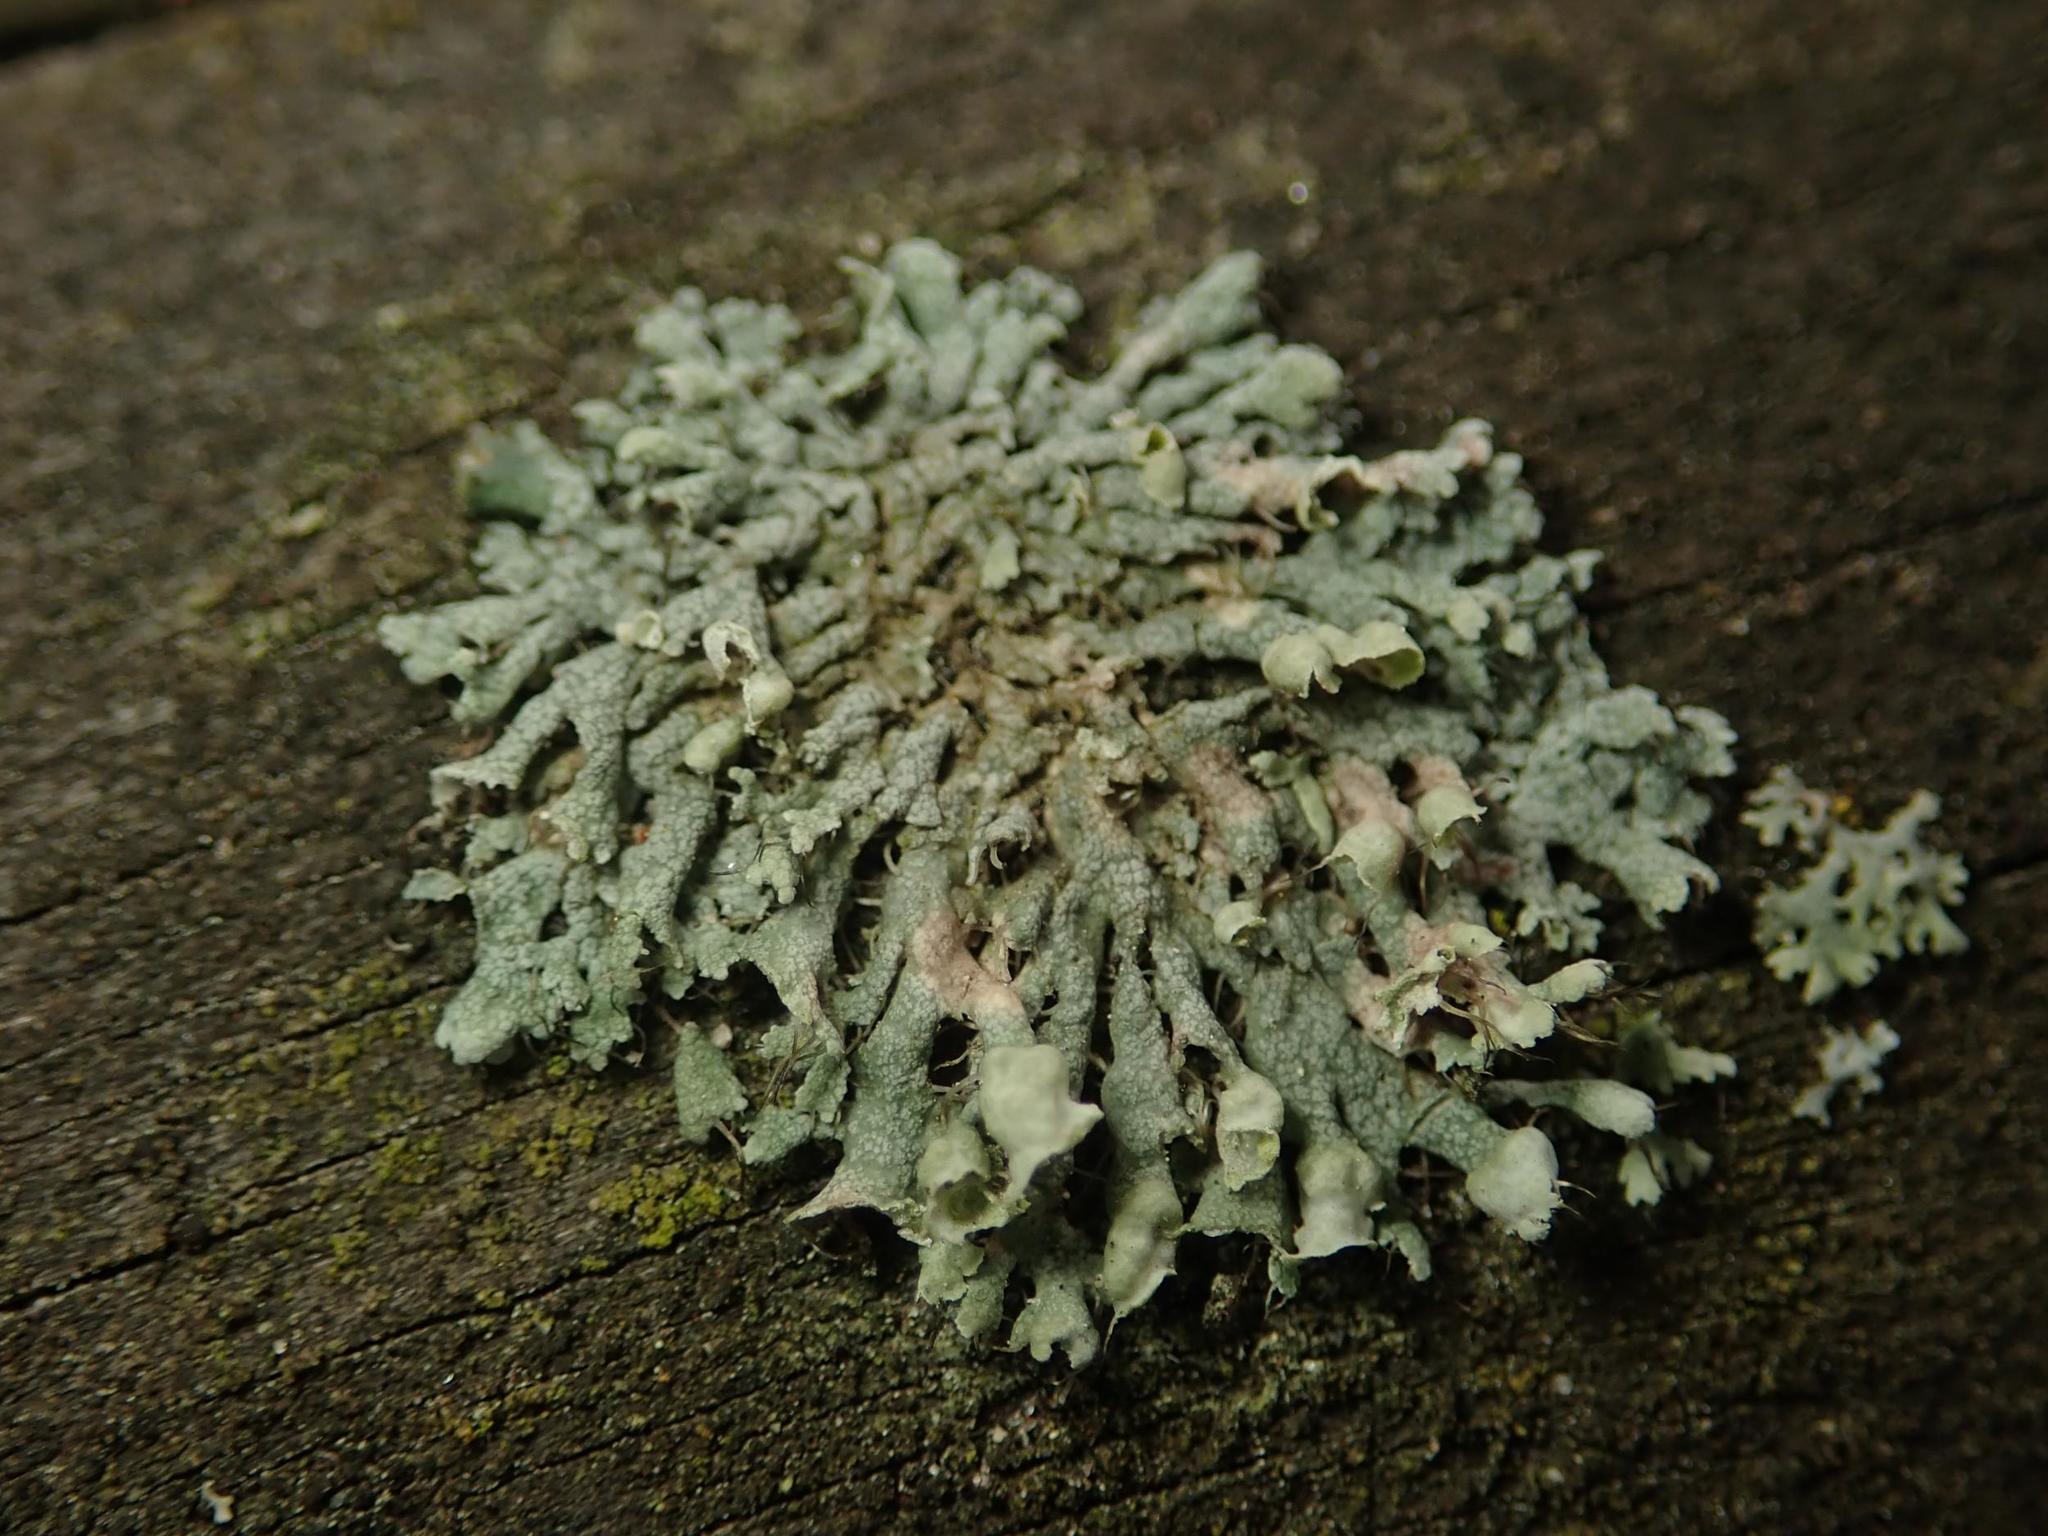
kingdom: Fungi
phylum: Ascomycota
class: Lecanoromycetes
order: Caliciales
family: Physciaceae
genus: Physcia
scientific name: Physcia adscendens
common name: Hooded rosette lichen
